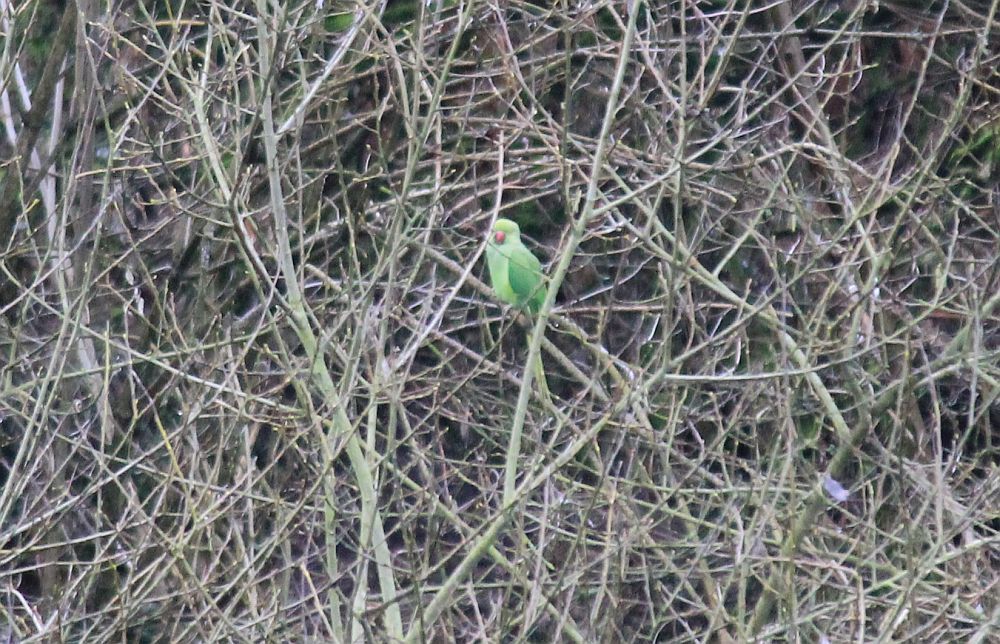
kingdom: Animalia
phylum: Chordata
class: Aves
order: Psittaciformes
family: Psittacidae
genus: Psittacula
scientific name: Psittacula krameri
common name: Rose-ringed parakeet
